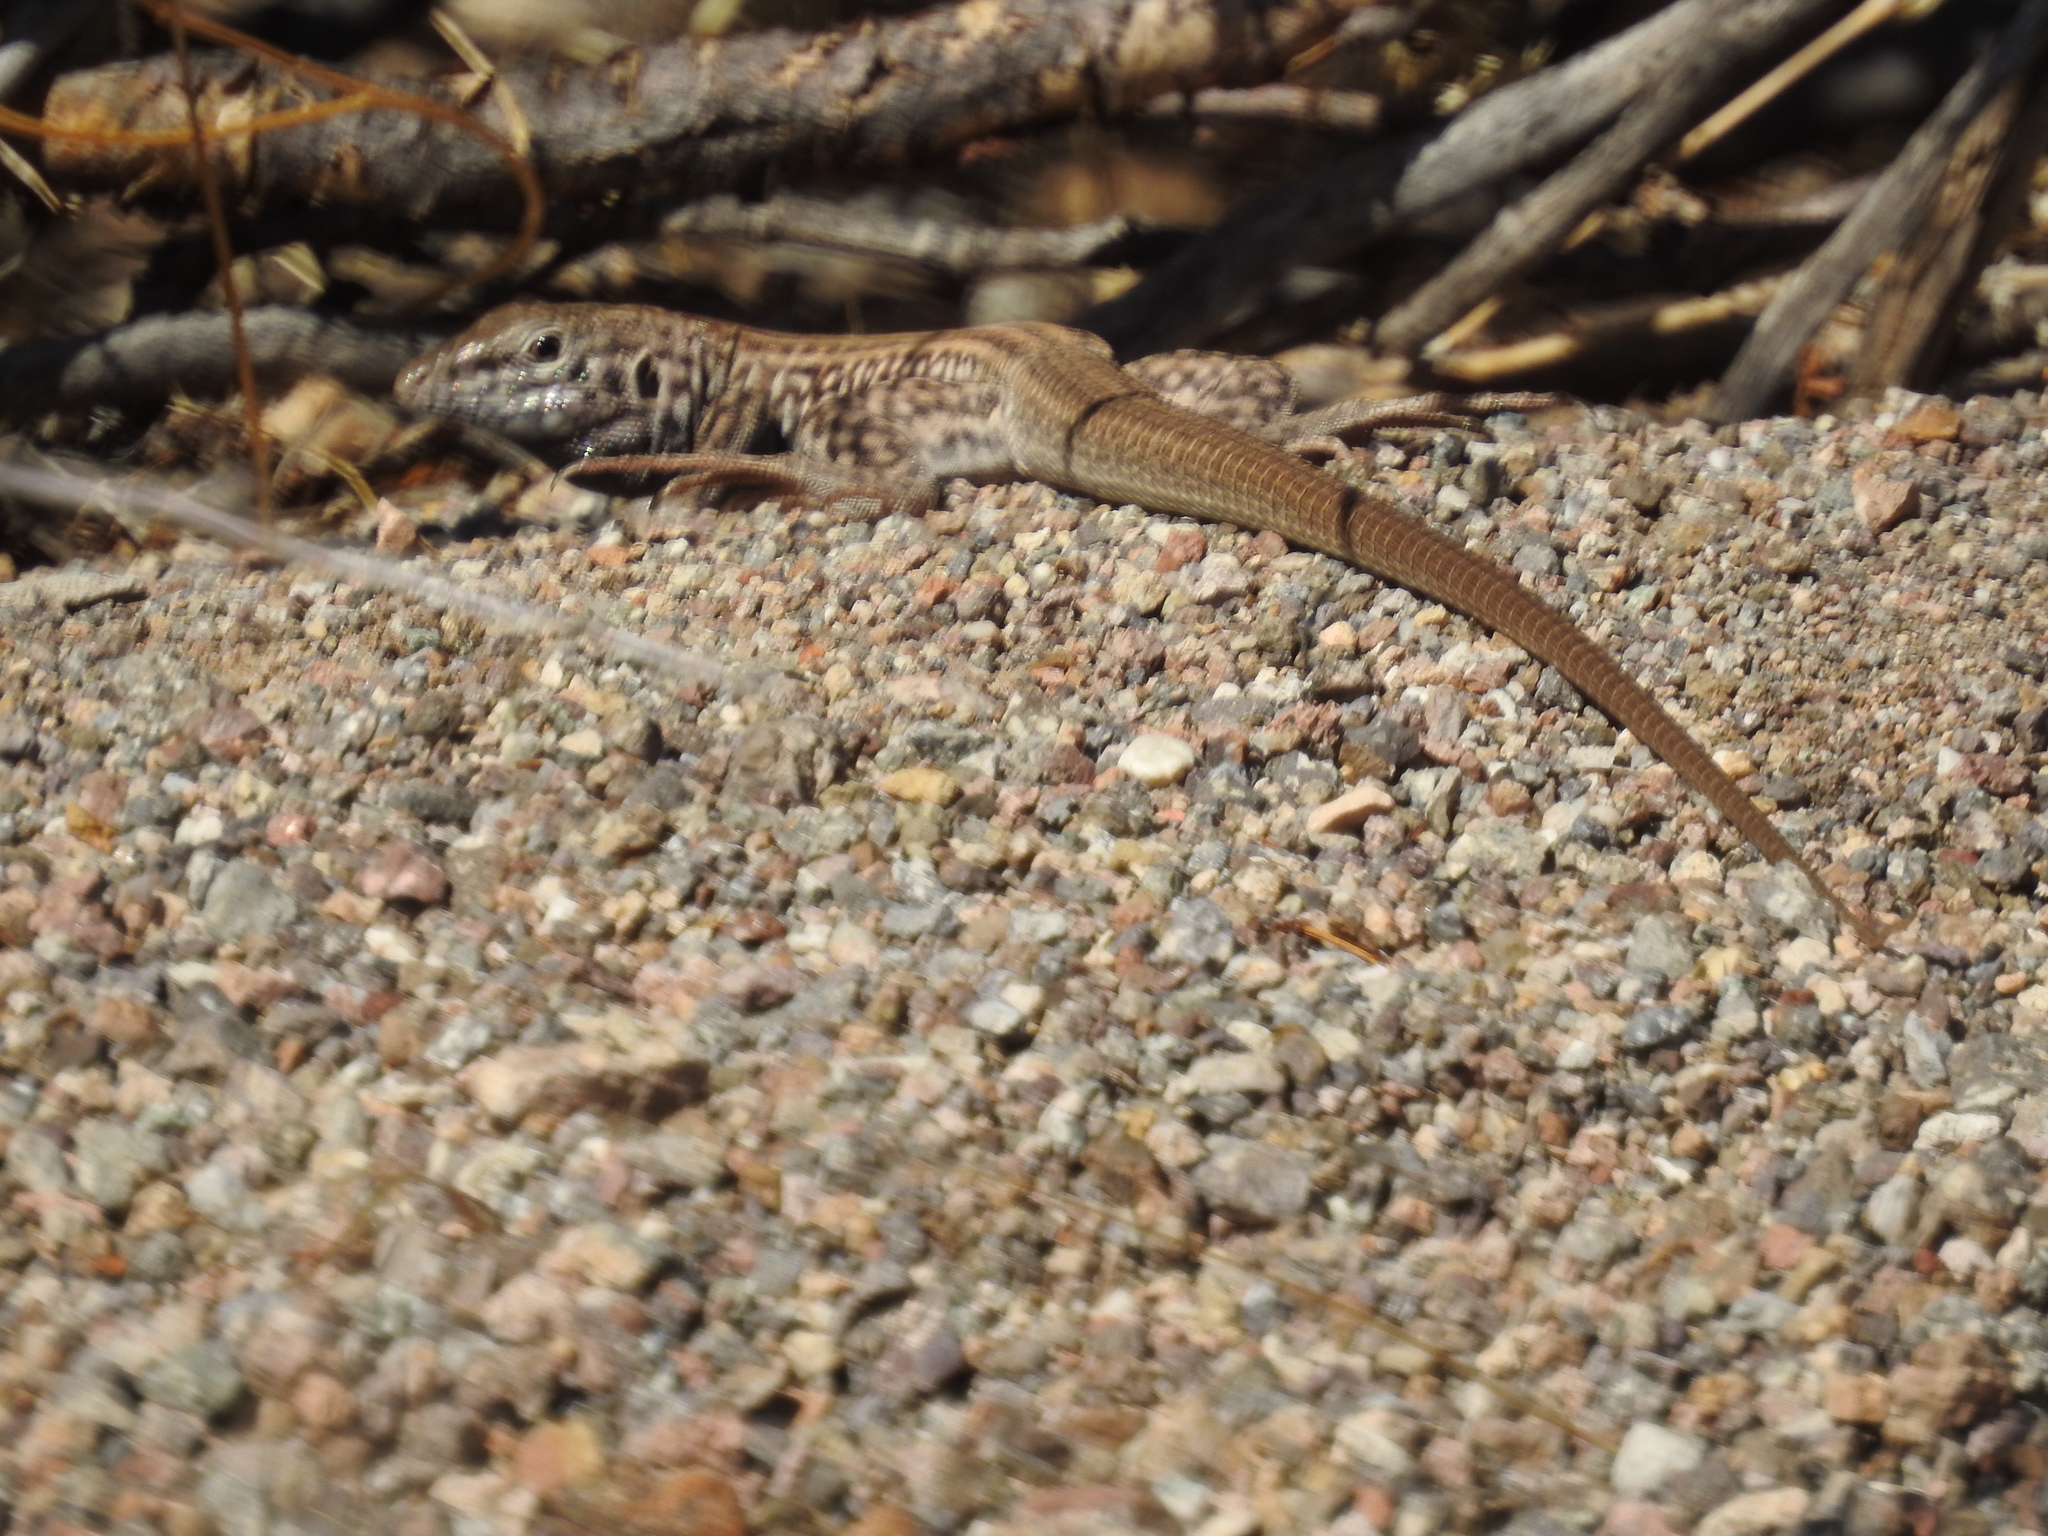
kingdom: Animalia
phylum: Chordata
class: Squamata
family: Teiidae
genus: Aspidoscelis
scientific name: Aspidoscelis tigris
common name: Tiger whiptail
